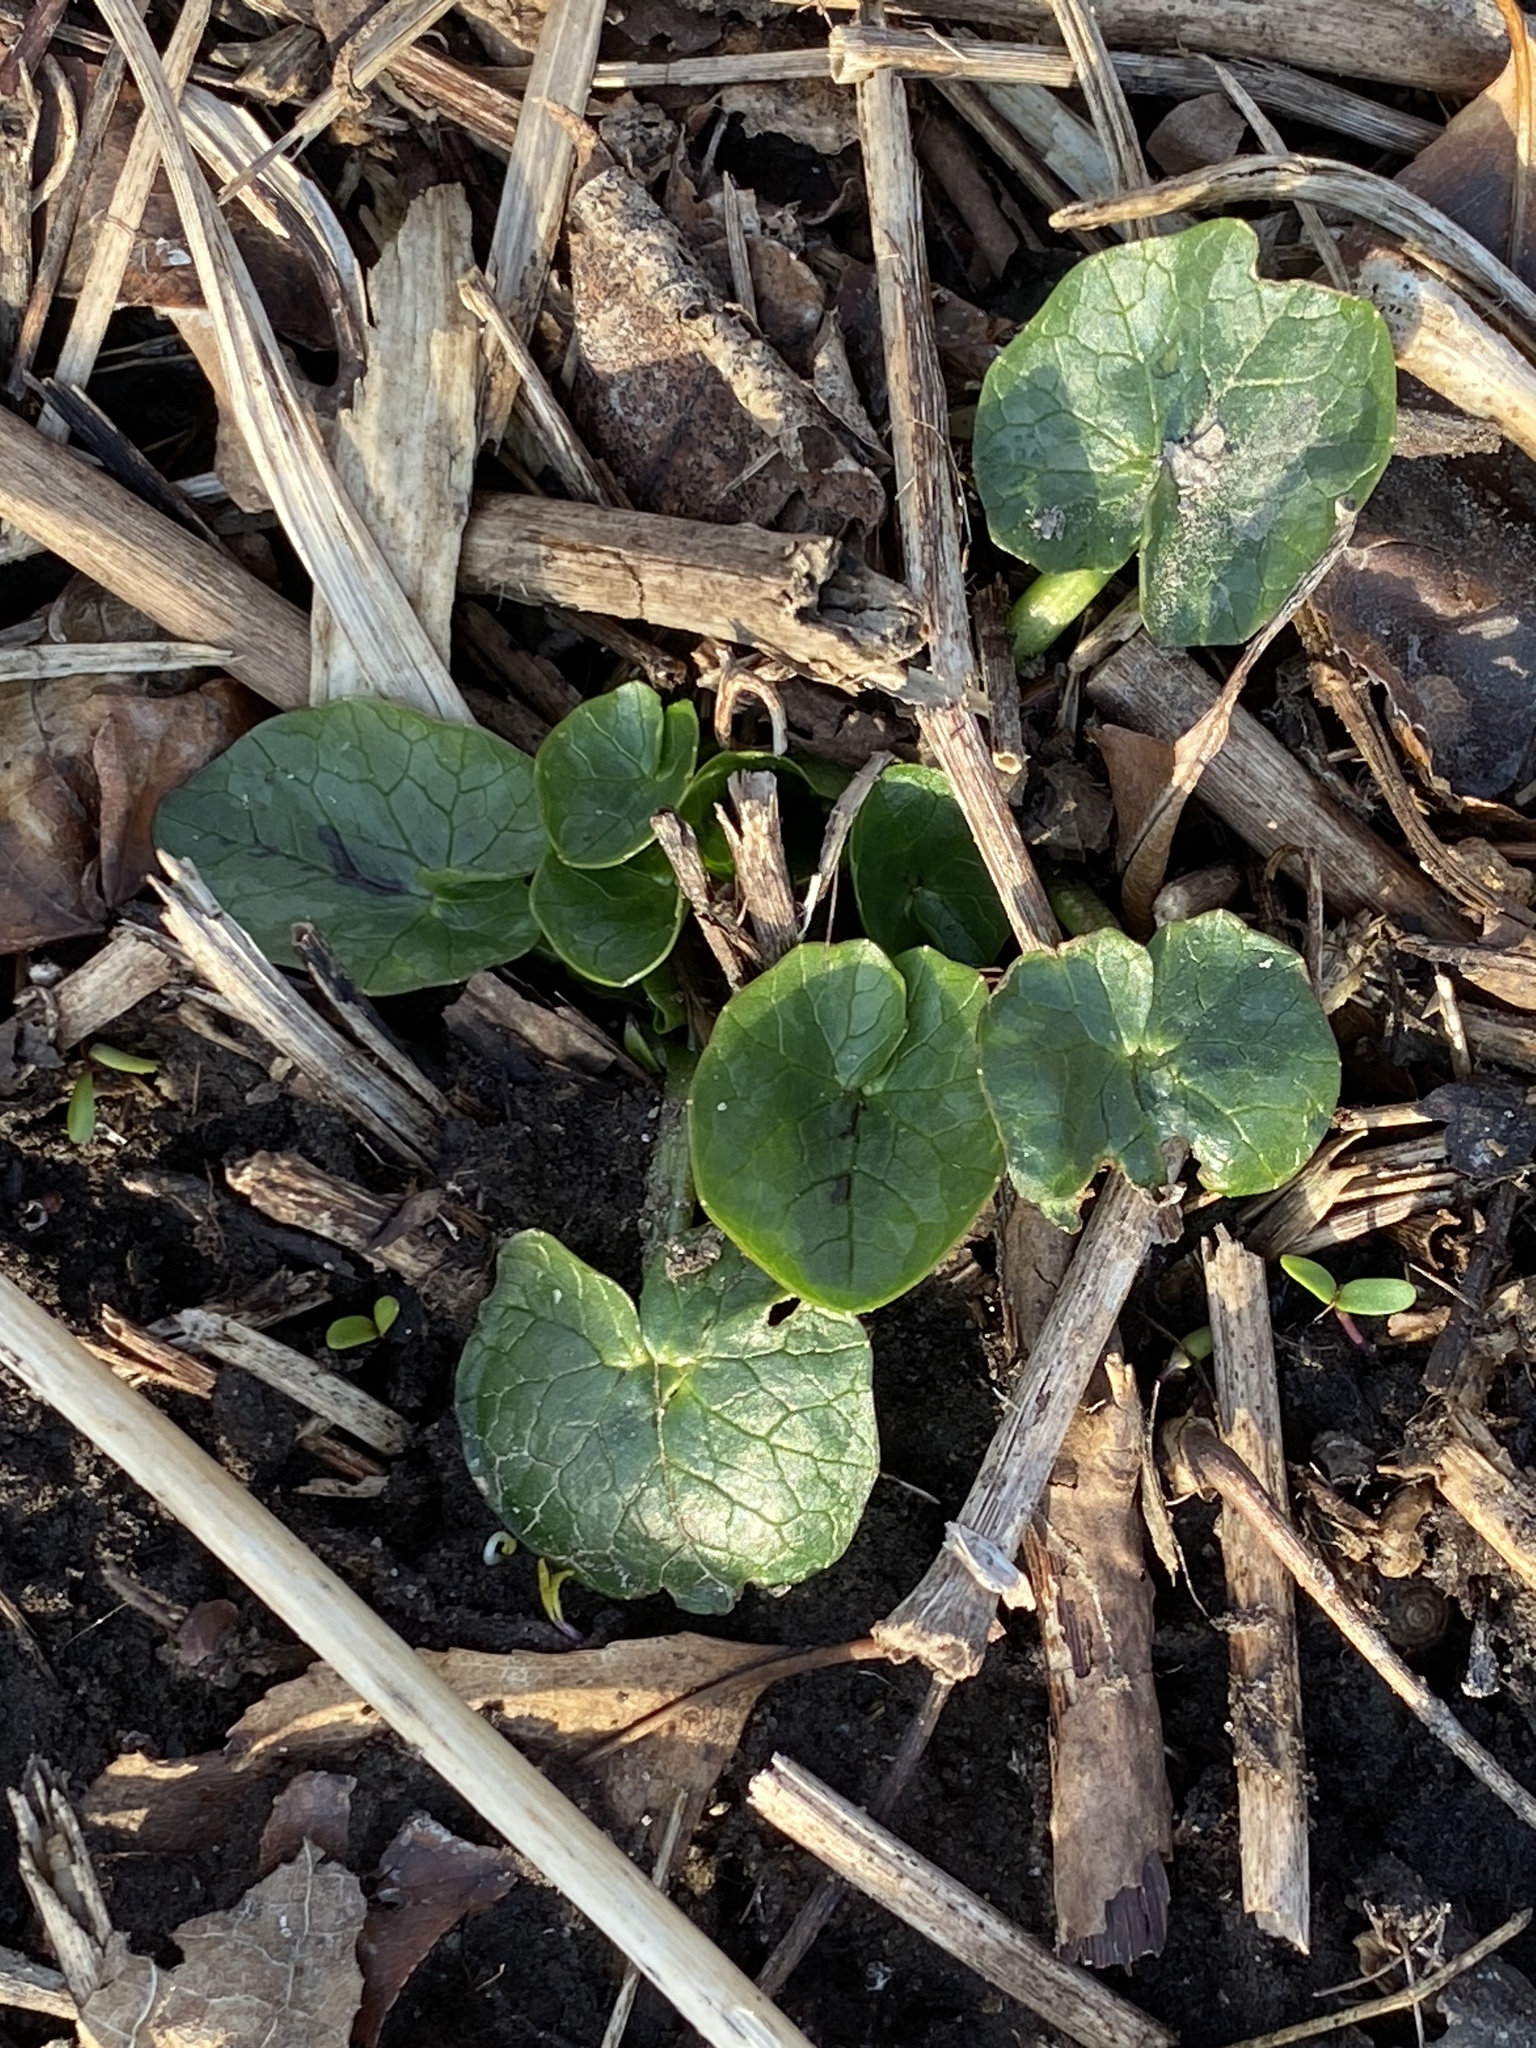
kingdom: Plantae
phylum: Tracheophyta
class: Magnoliopsida
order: Ranunculales
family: Ranunculaceae
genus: Ficaria
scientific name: Ficaria verna
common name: Lesser celandine
